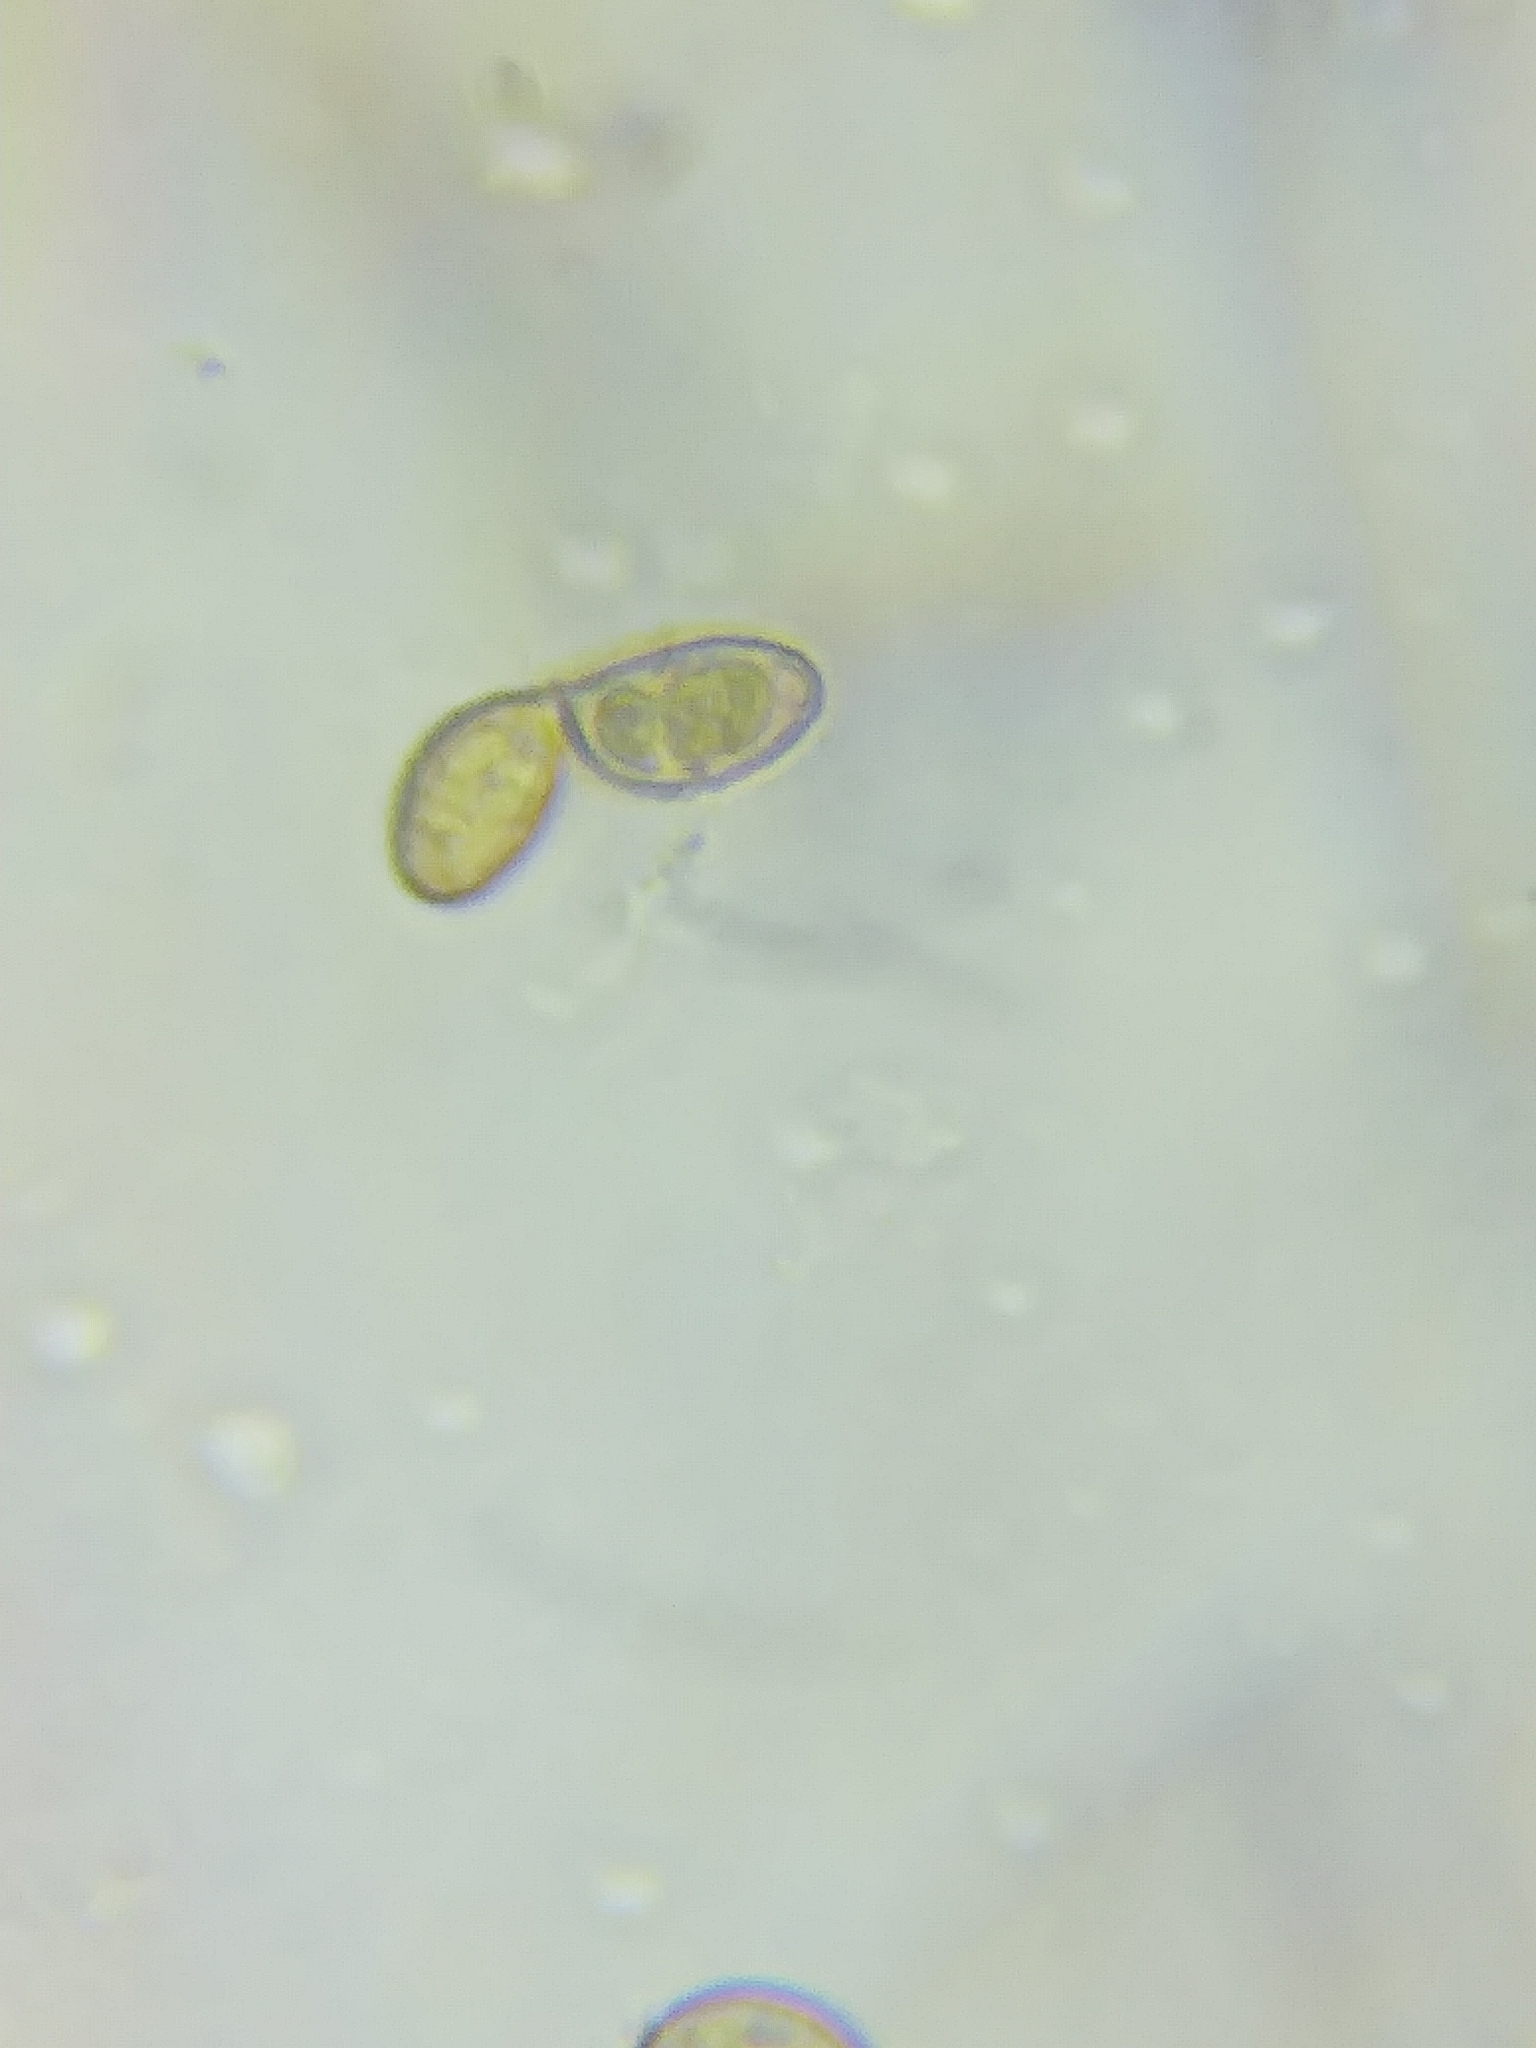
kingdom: Fungi
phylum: Basidiomycota
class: Agaricomycetes
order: Agaricales
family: Cortinariaceae
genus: Cortinarius
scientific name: Cortinarius traganus
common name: Gassy webcap
